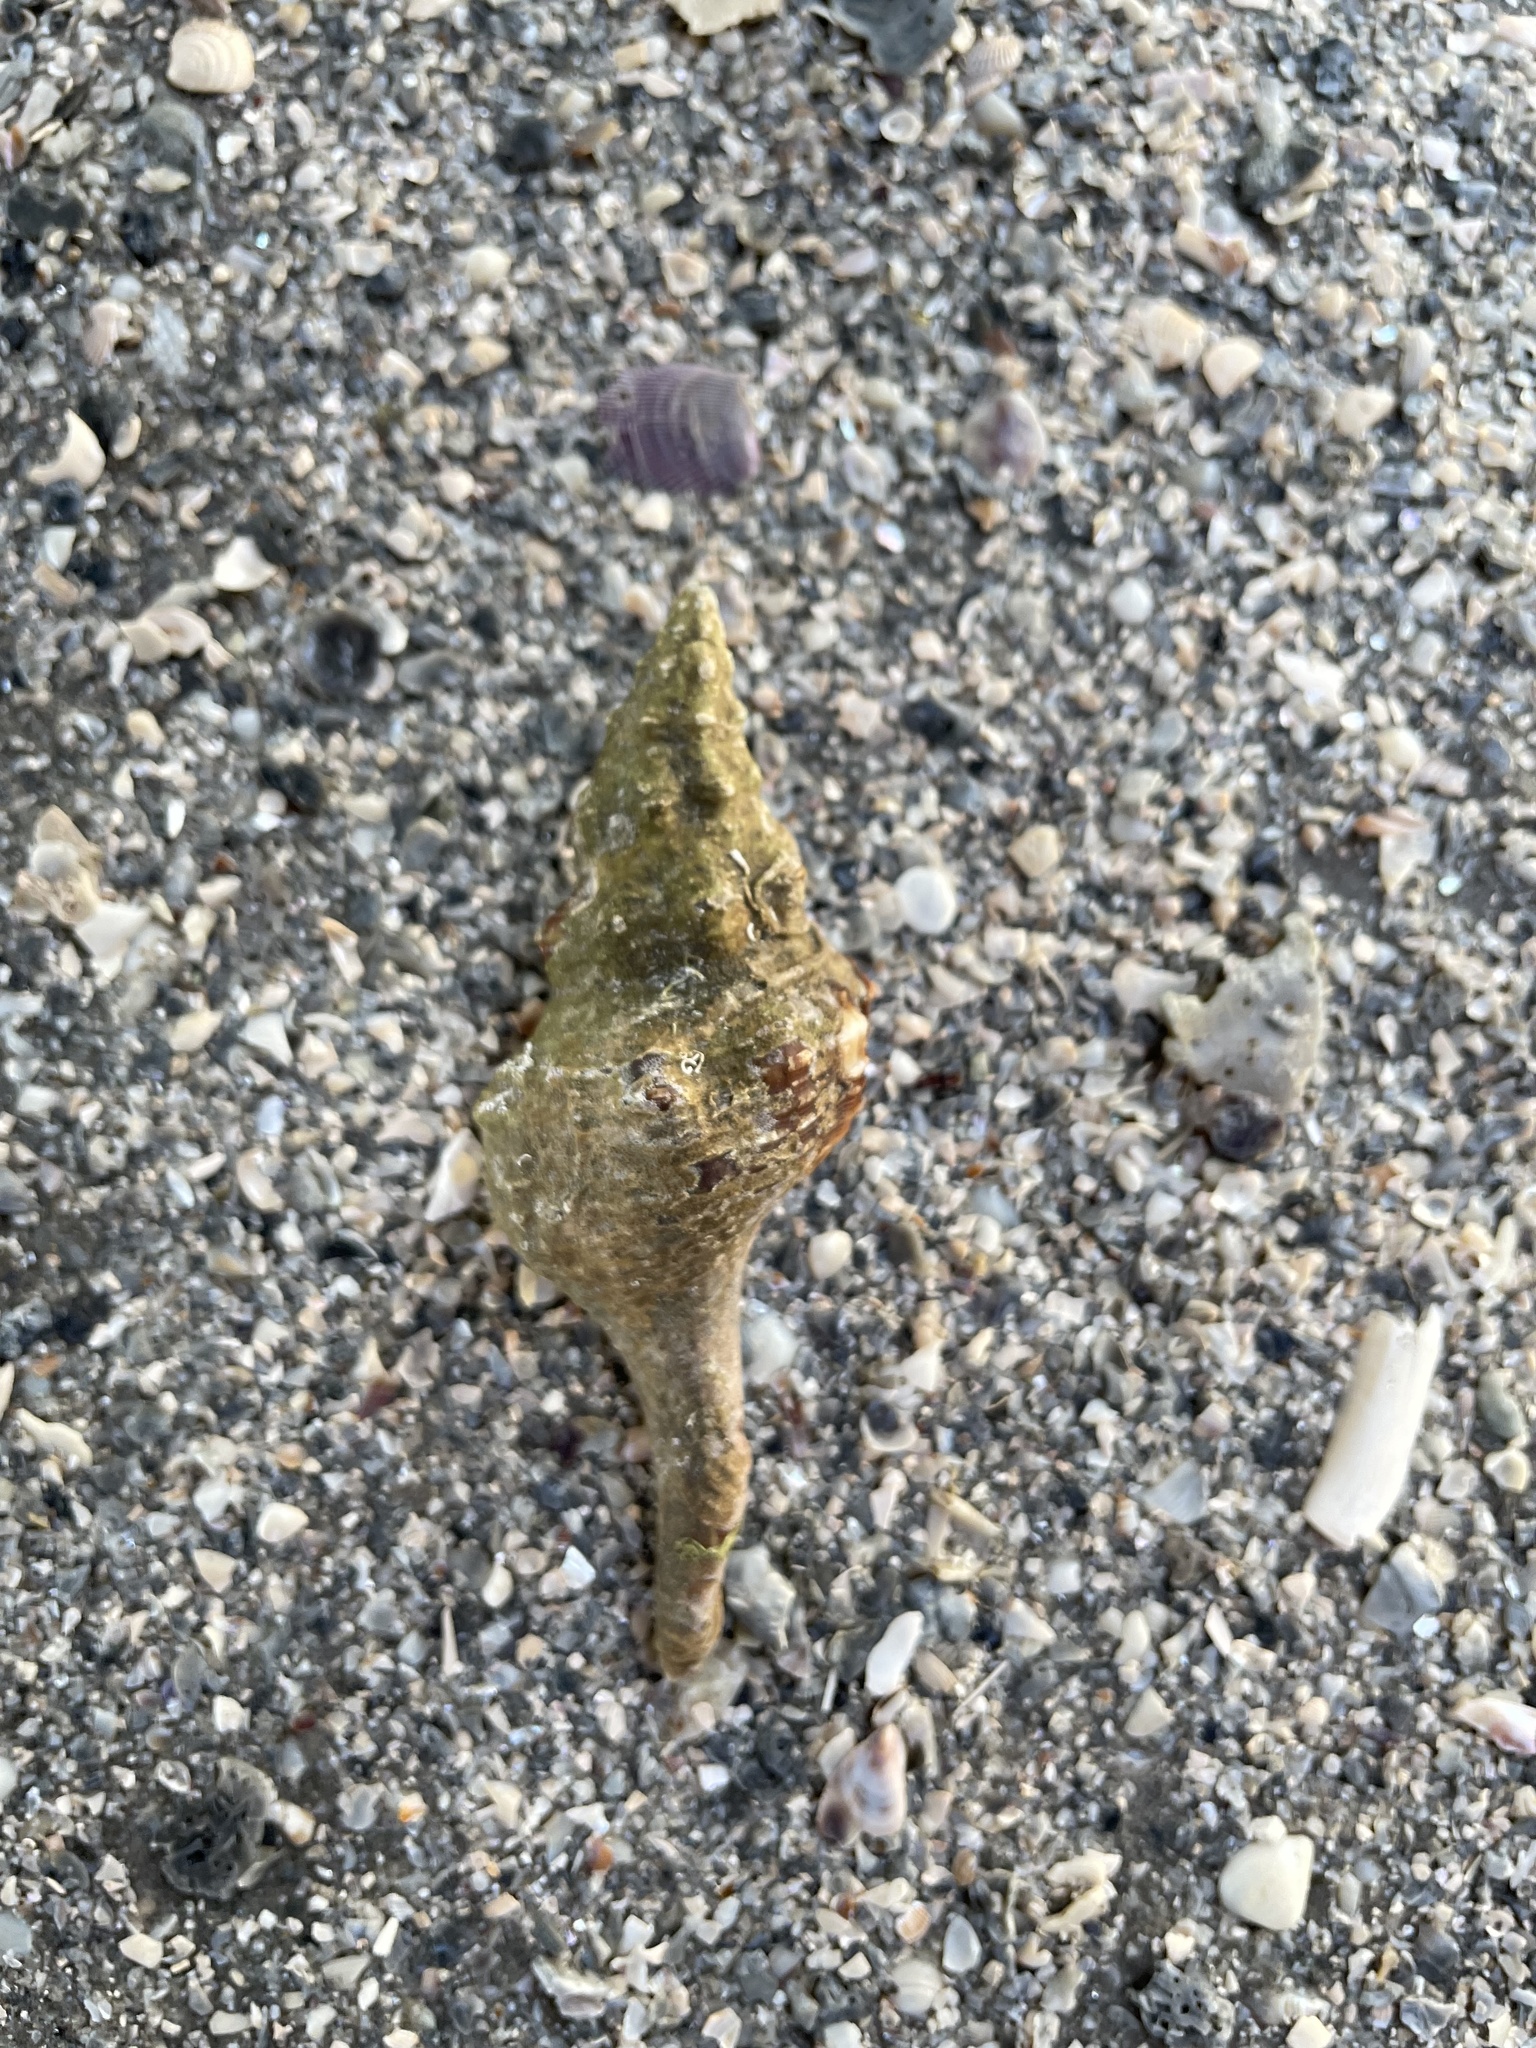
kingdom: Animalia
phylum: Mollusca
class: Gastropoda
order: Neogastropoda
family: Fasciolariidae
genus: Triplofusus
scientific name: Triplofusus giganteus
